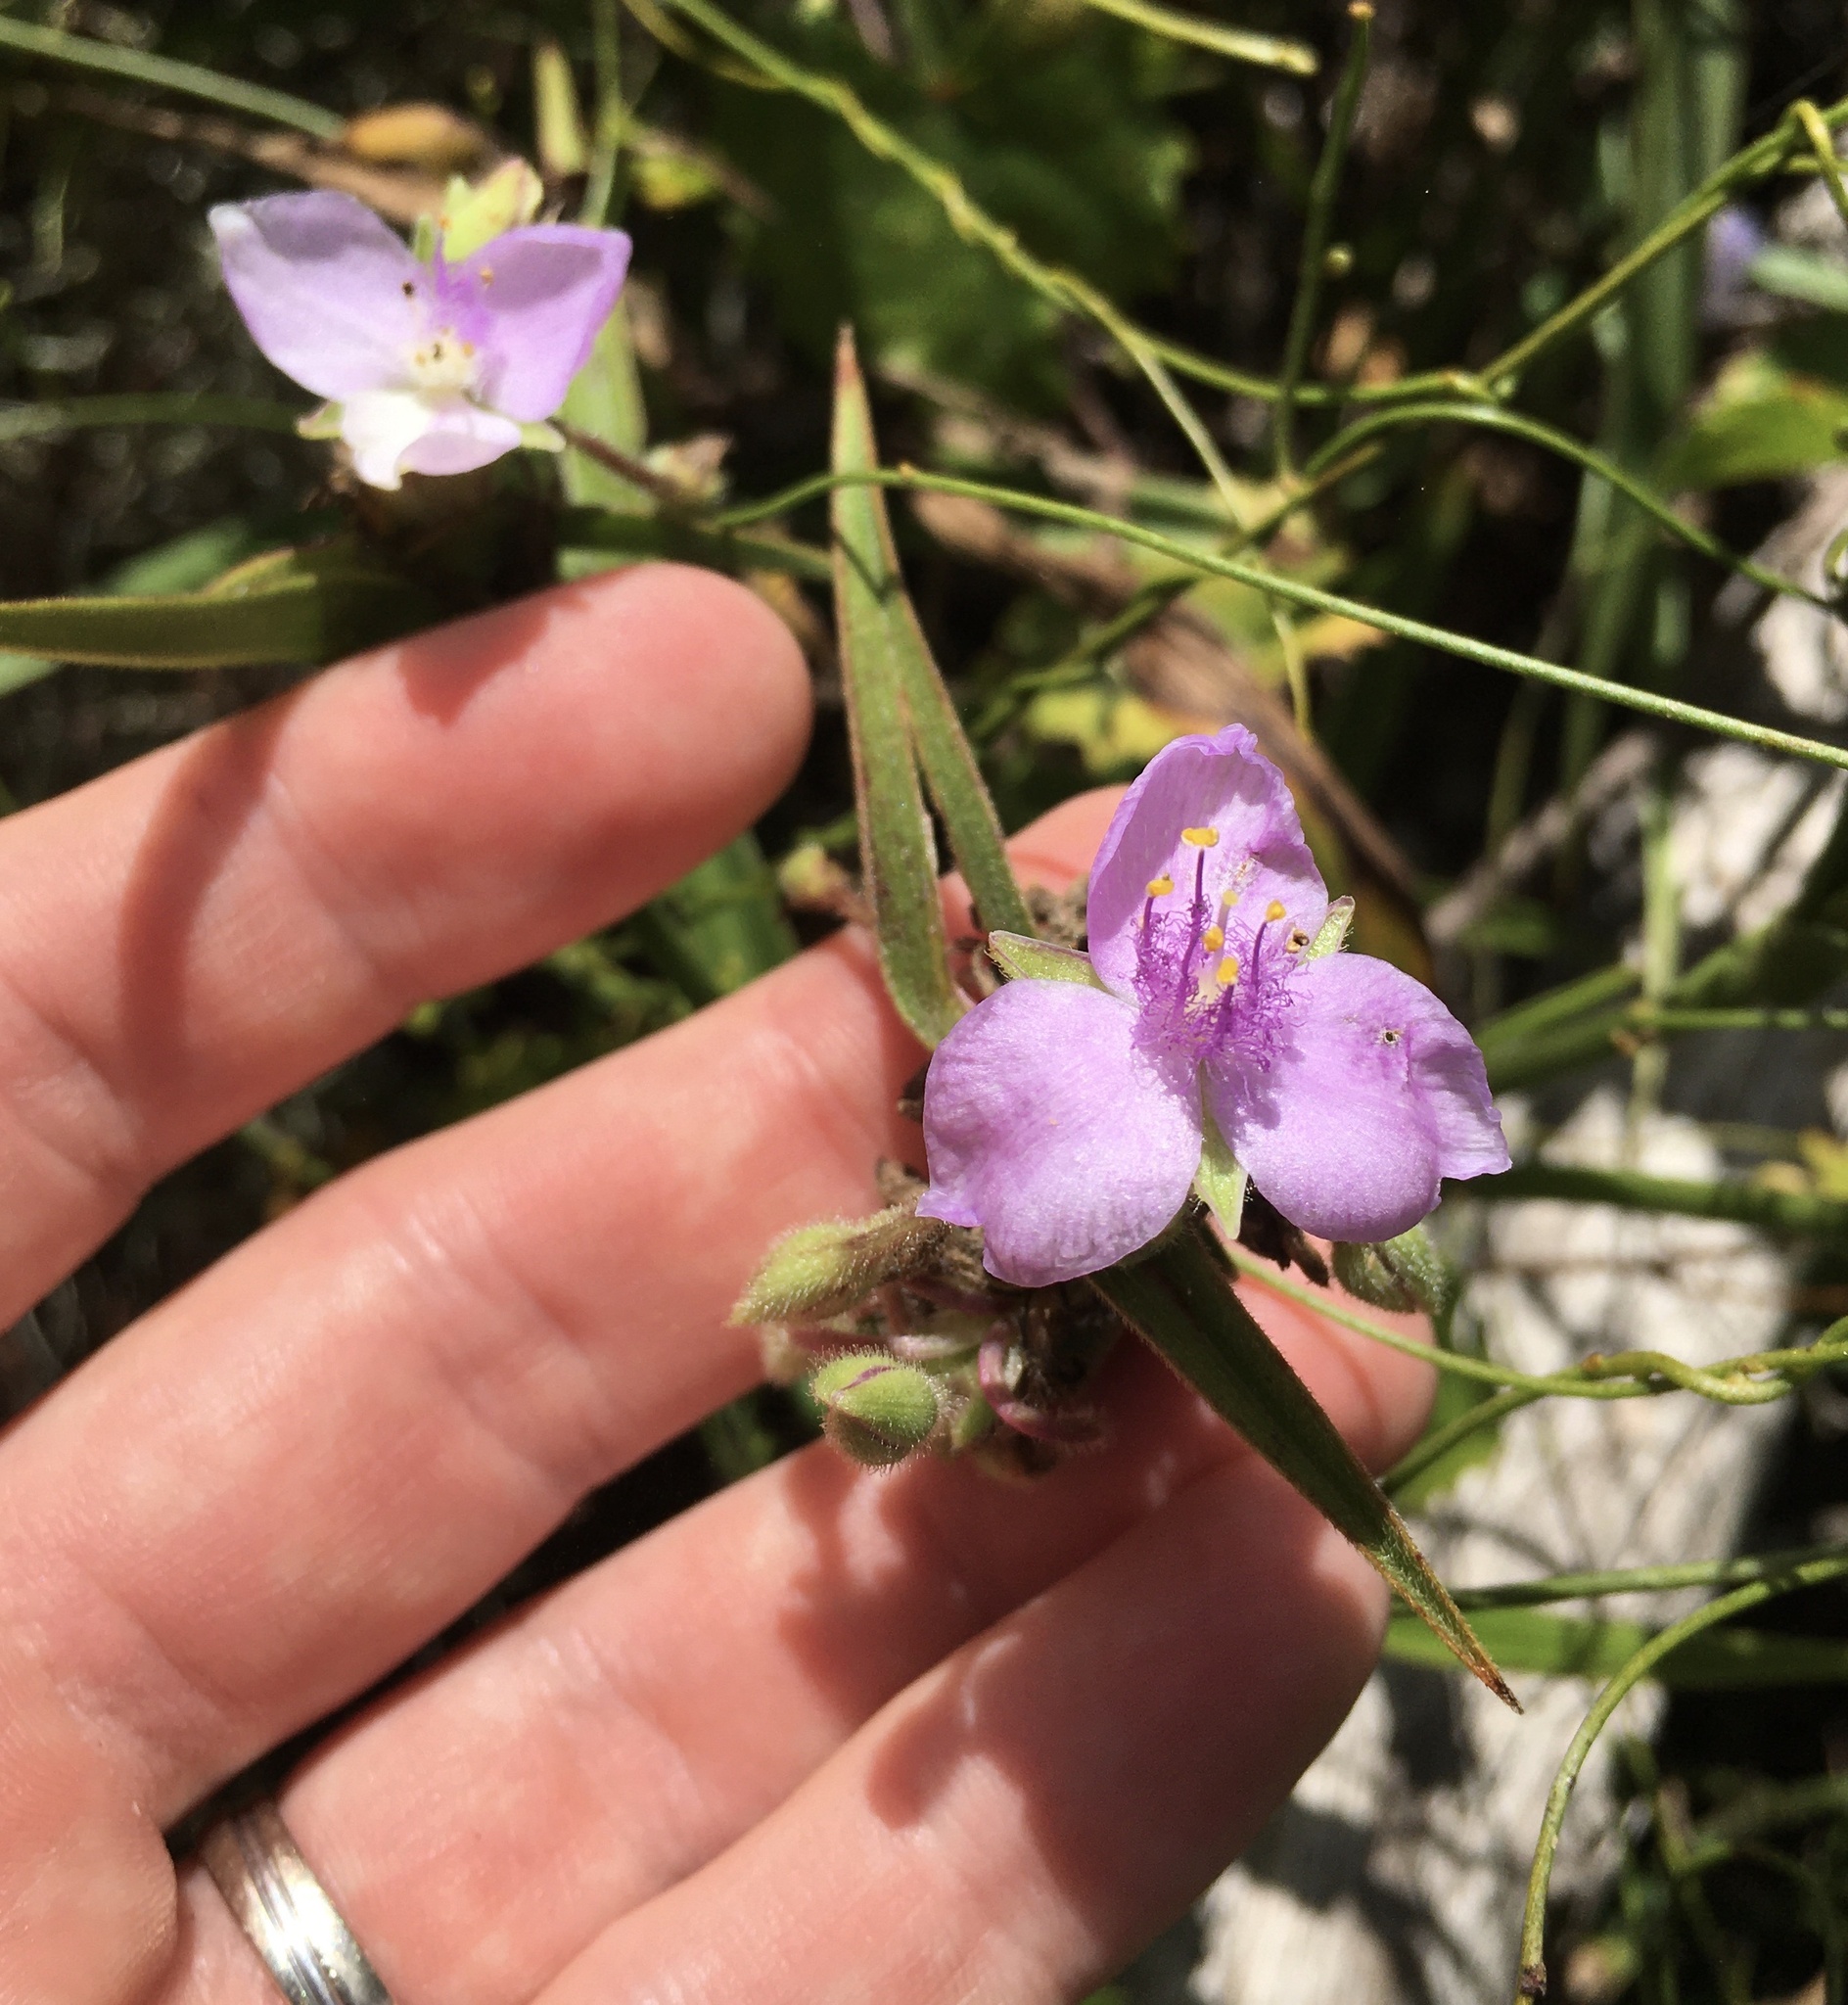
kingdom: Plantae
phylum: Tracheophyta
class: Liliopsida
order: Commelinales
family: Commelinaceae
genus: Tradescantia
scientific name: Tradescantia roseolens
